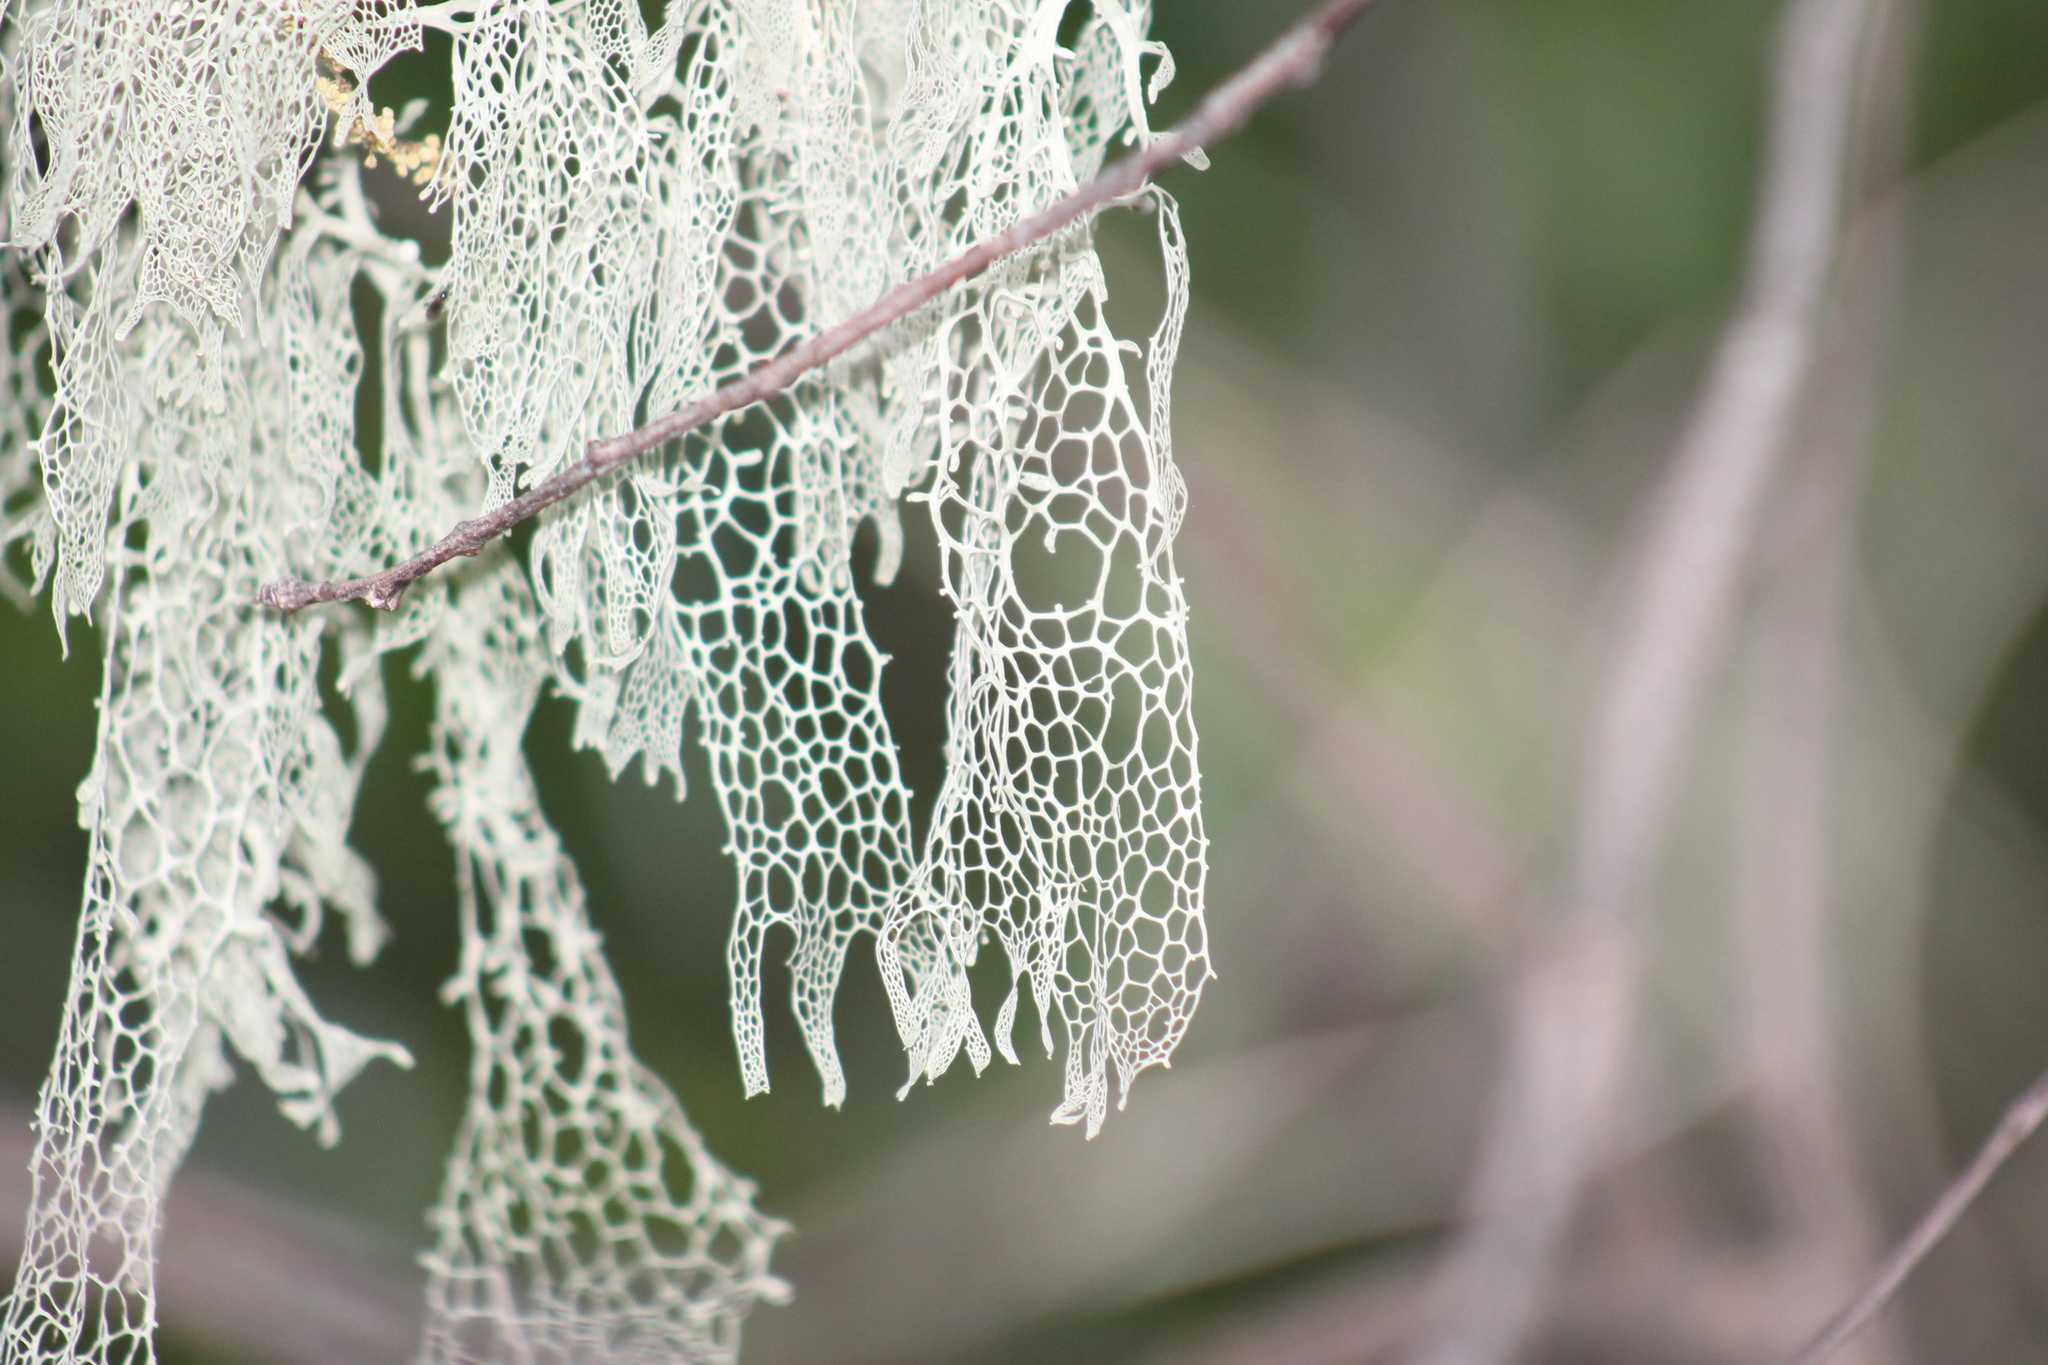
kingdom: Fungi
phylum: Ascomycota
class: Lecanoromycetes
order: Lecanorales
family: Ramalinaceae
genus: Ramalina
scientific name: Ramalina menziesii
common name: Lace lichen
